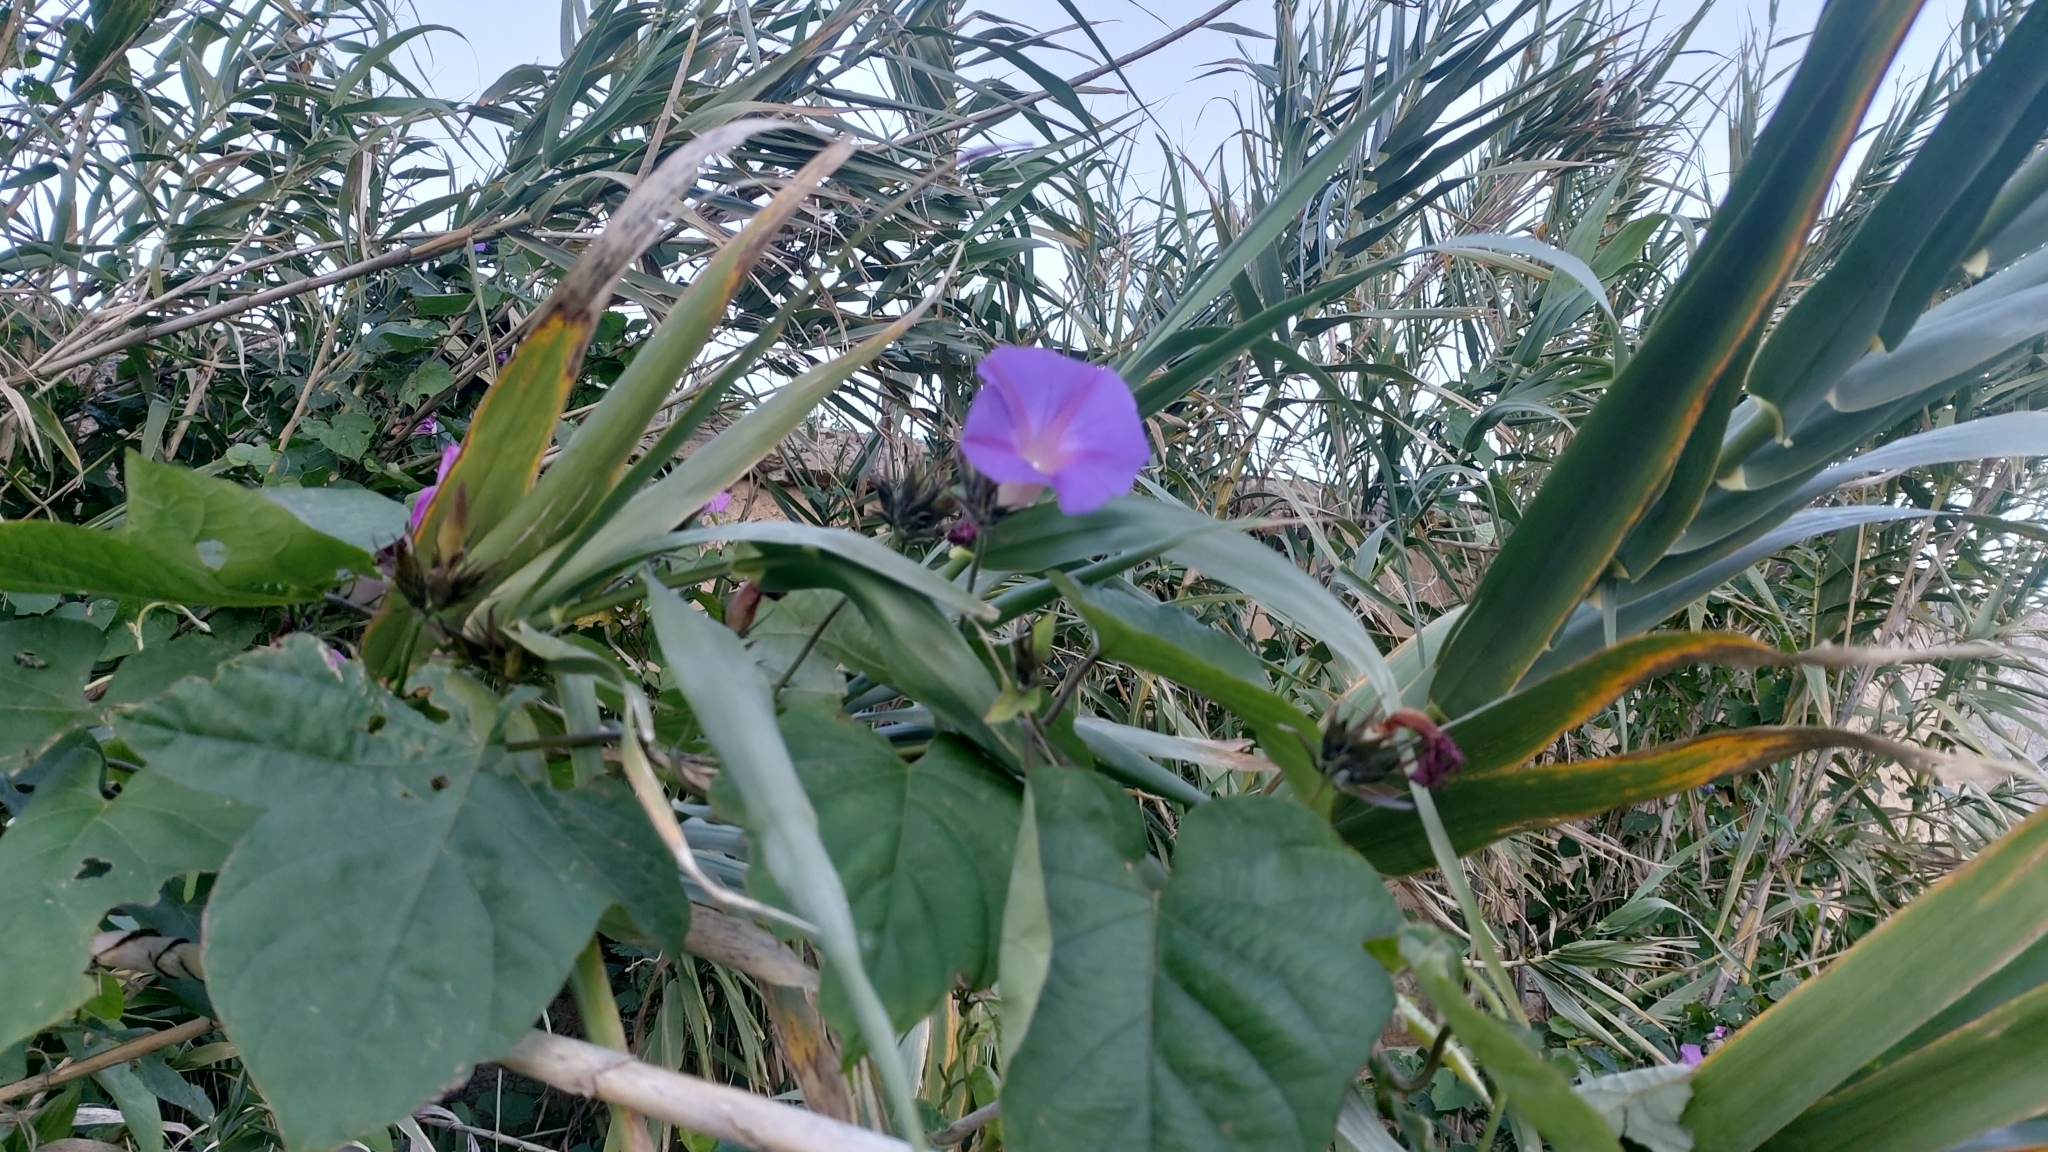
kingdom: Plantae
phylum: Tracheophyta
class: Magnoliopsida
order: Solanales
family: Convolvulaceae
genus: Ipomoea
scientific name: Ipomoea indica
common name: Blue dawnflower
